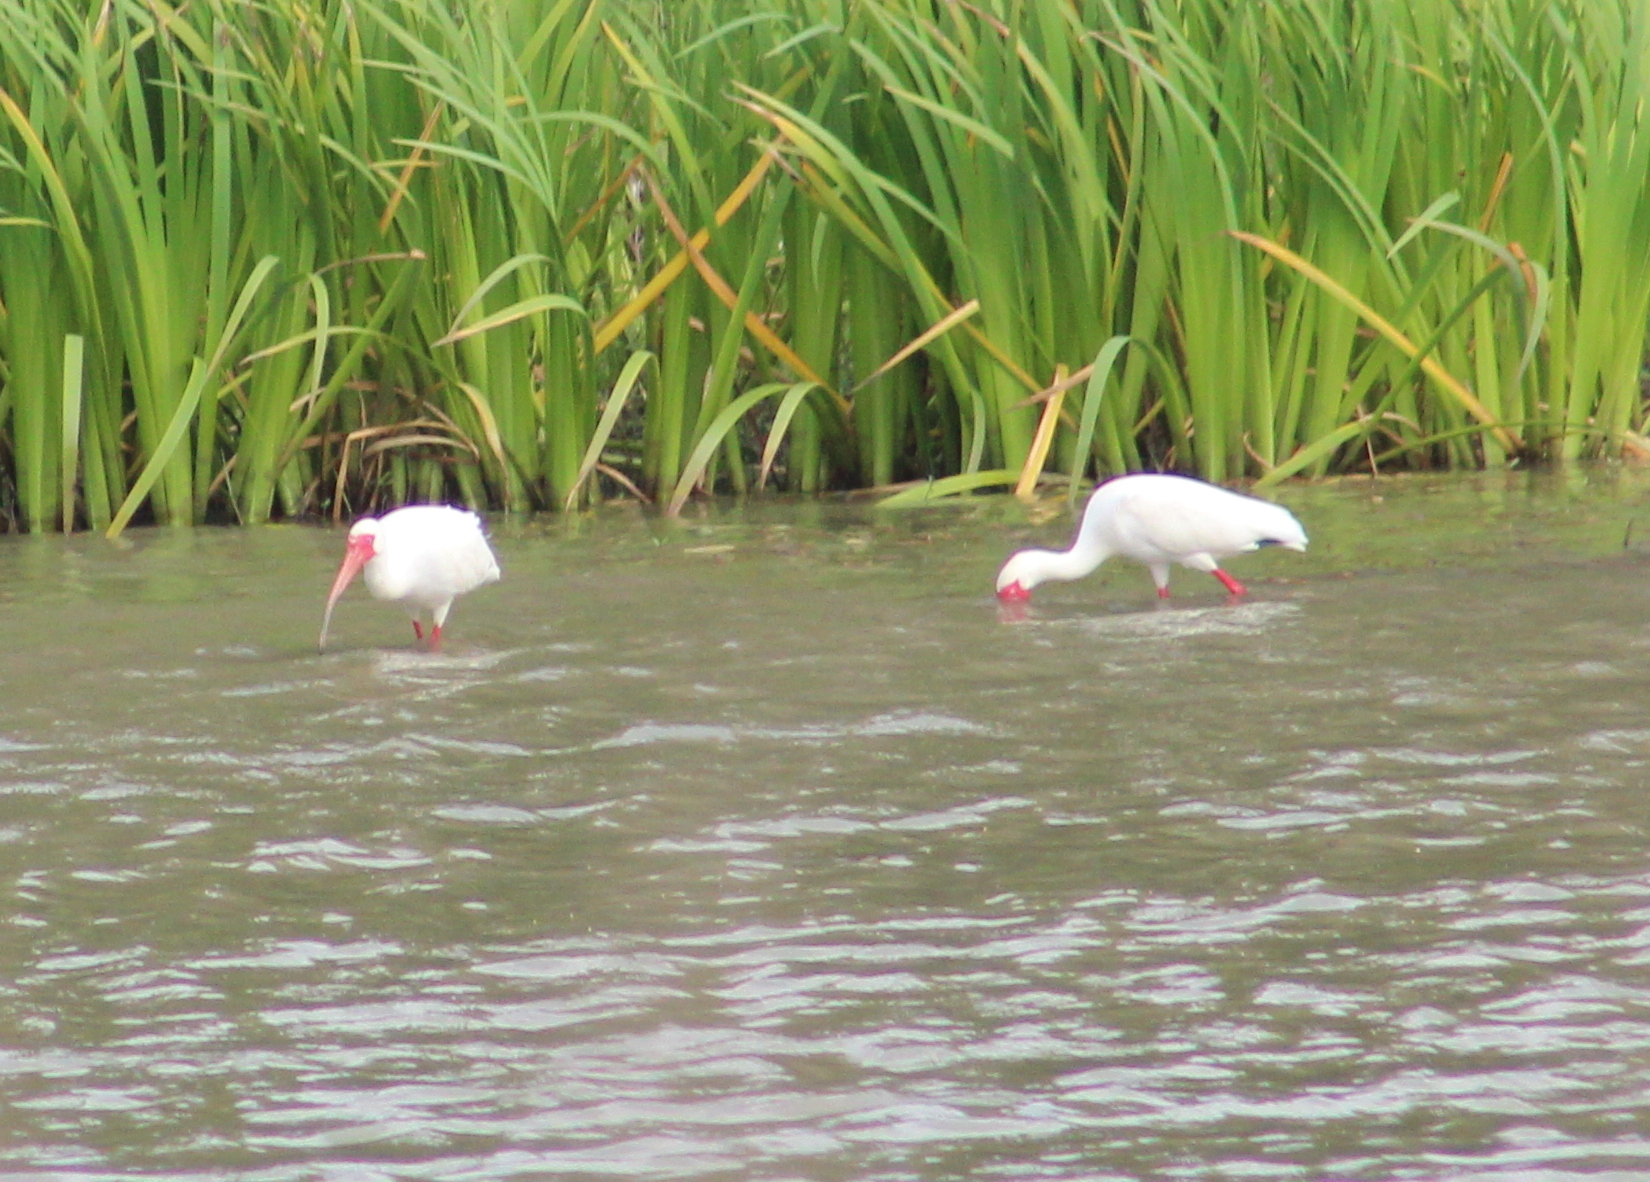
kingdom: Animalia
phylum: Chordata
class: Aves
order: Pelecaniformes
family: Threskiornithidae
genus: Eudocimus
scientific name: Eudocimus albus
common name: White ibis
